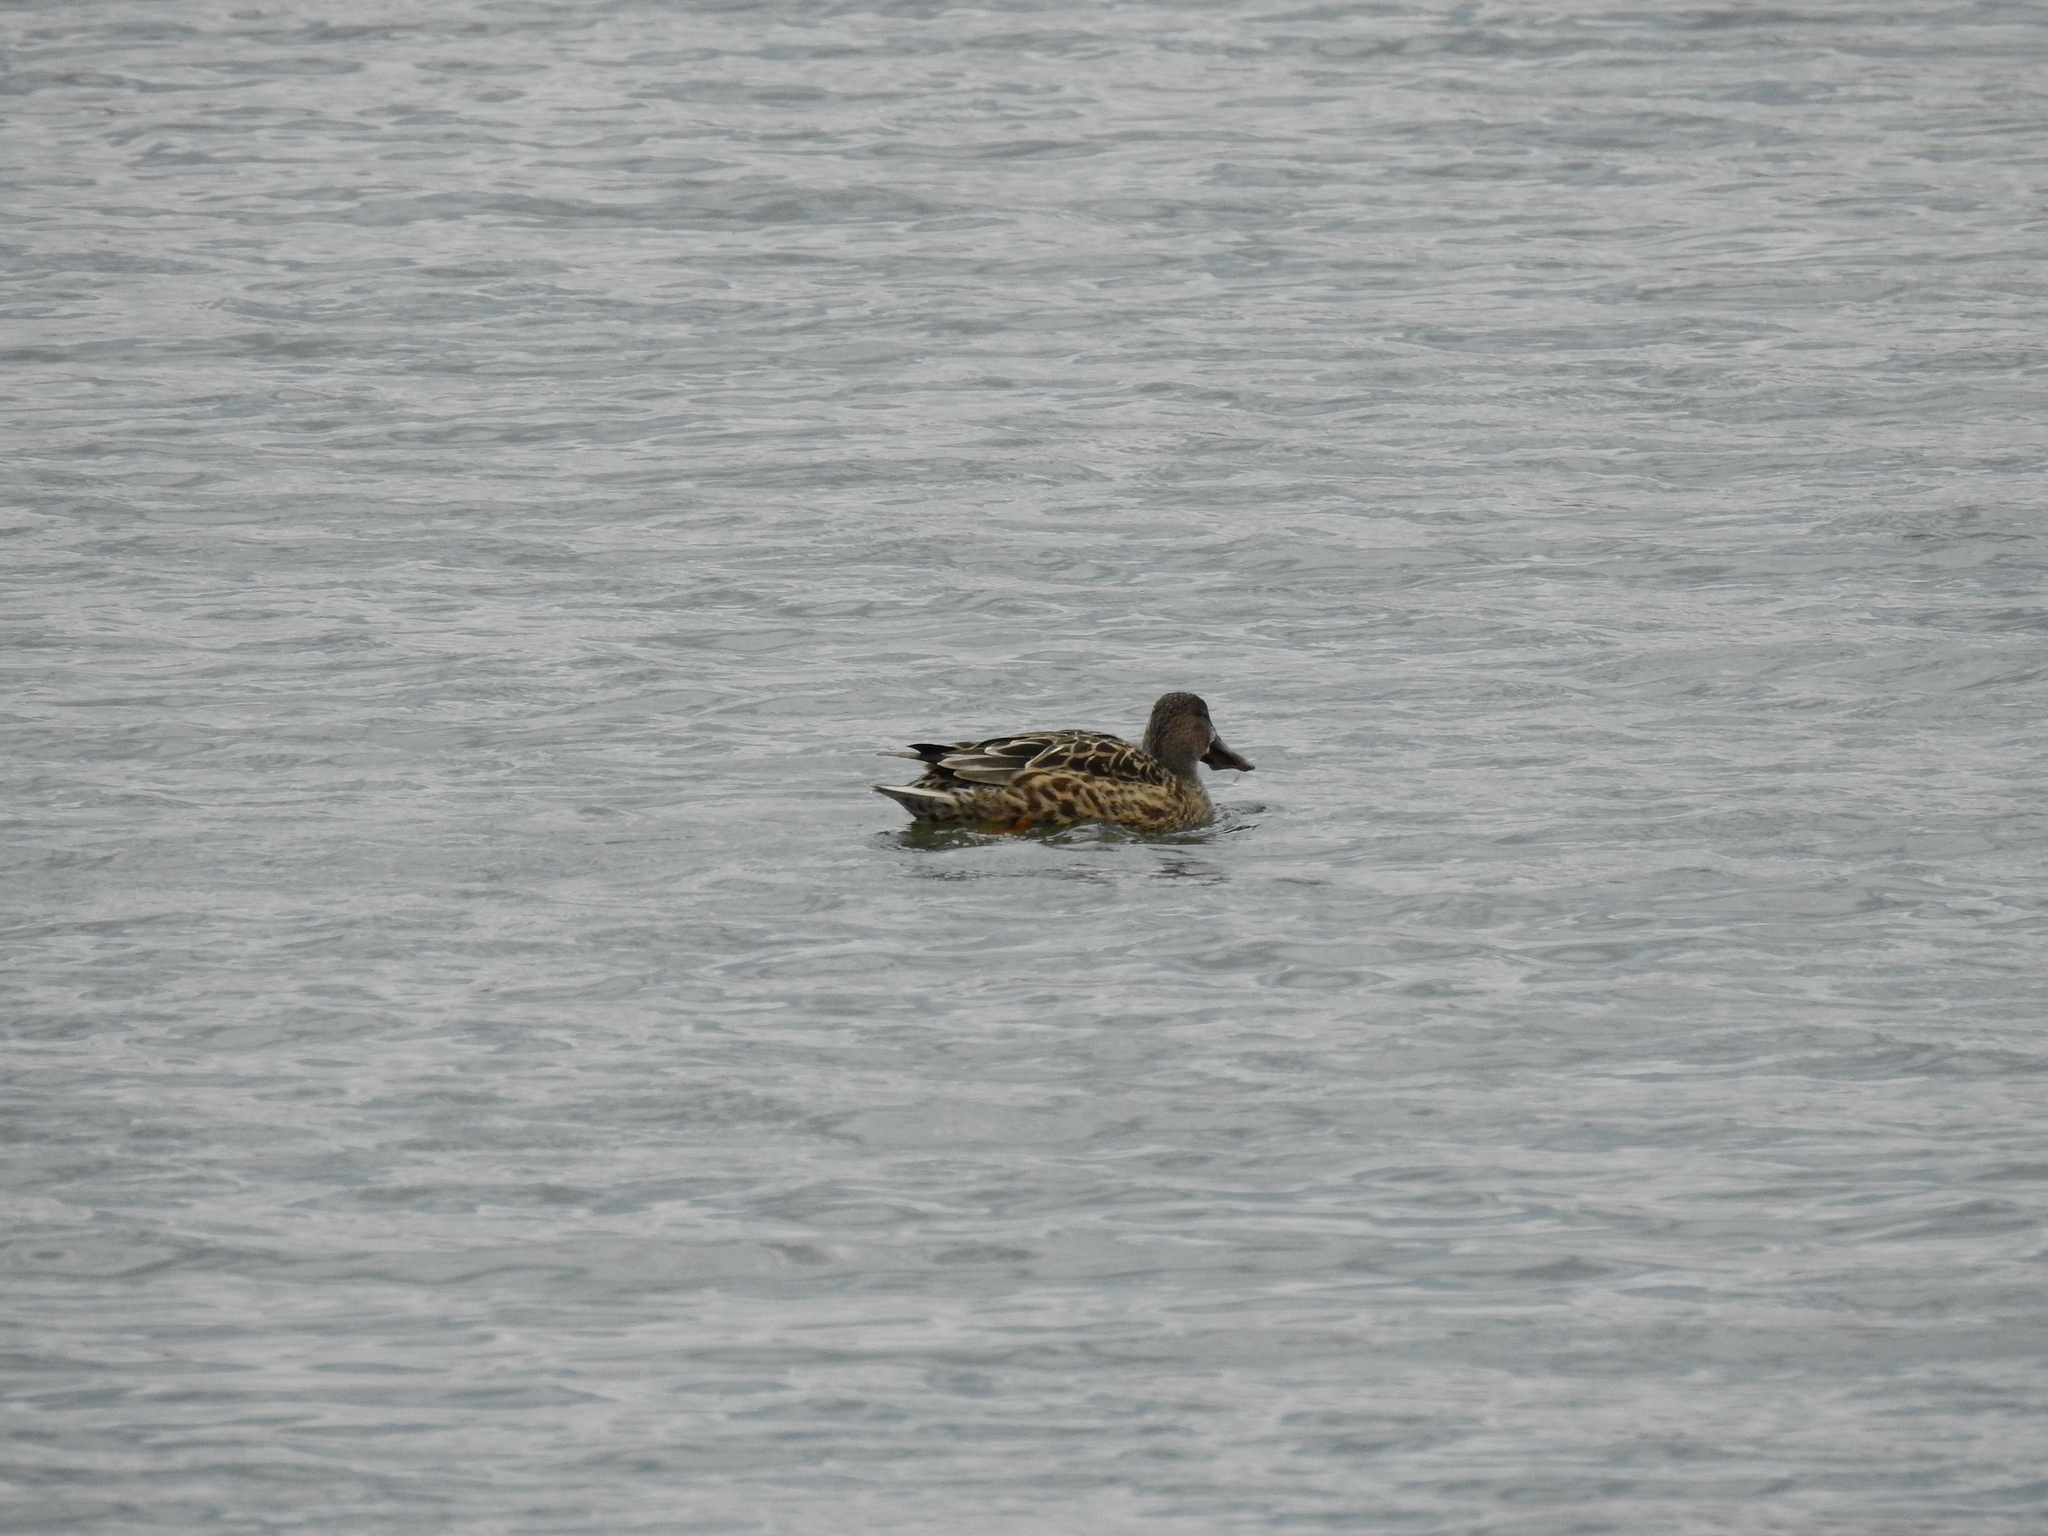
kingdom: Animalia
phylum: Chordata
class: Aves
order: Anseriformes
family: Anatidae
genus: Spatula
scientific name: Spatula clypeata
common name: Northern shoveler
